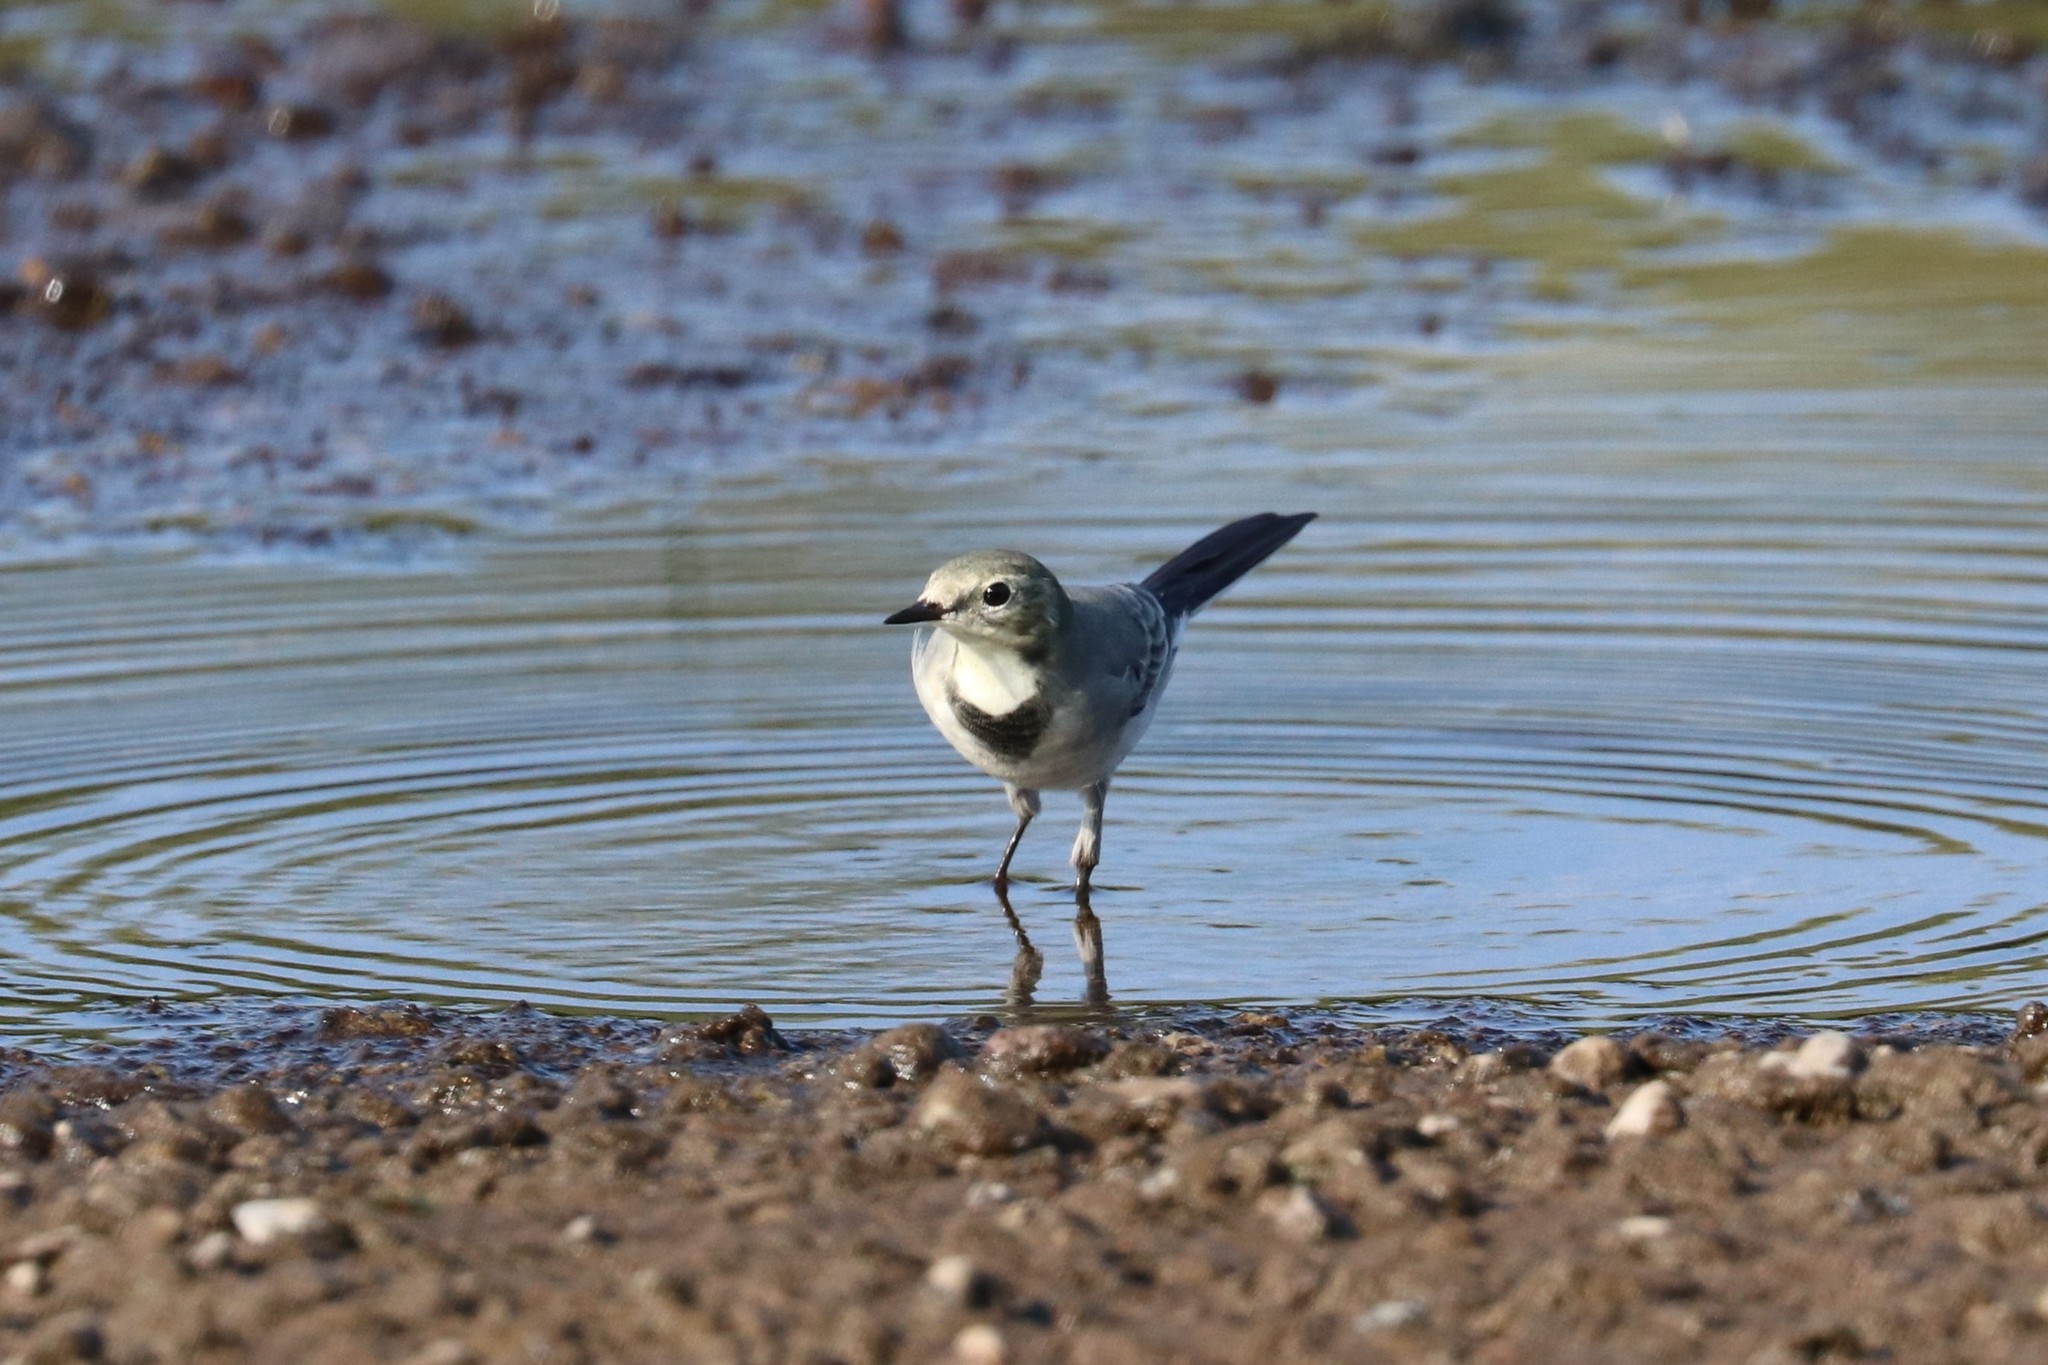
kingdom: Animalia
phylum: Chordata
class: Aves
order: Passeriformes
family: Motacillidae
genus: Motacilla
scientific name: Motacilla alba
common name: White wagtail
